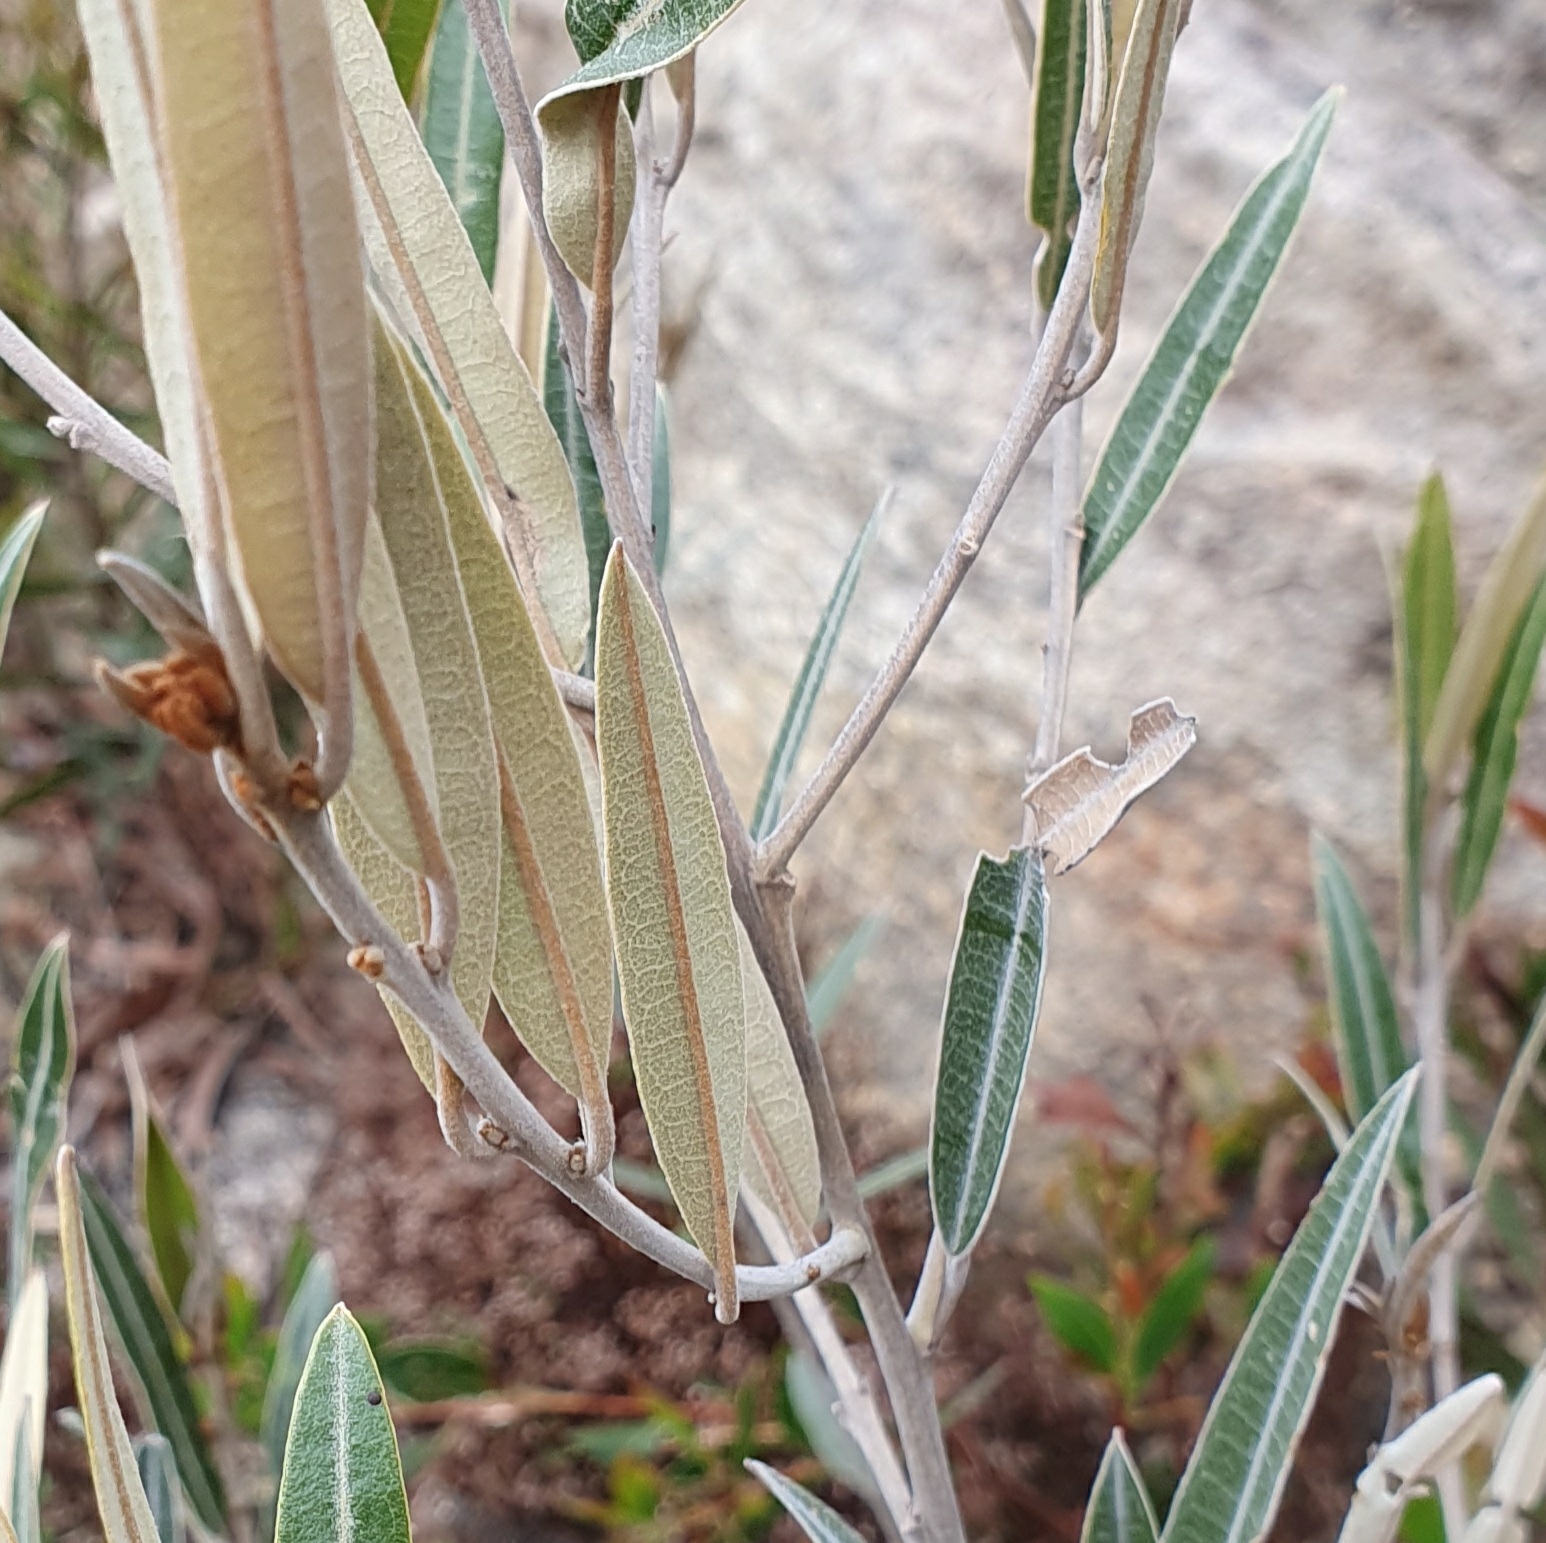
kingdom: Plantae
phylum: Tracheophyta
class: Magnoliopsida
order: Fabales
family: Fabaceae
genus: Hovea
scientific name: Hovea apiculata
